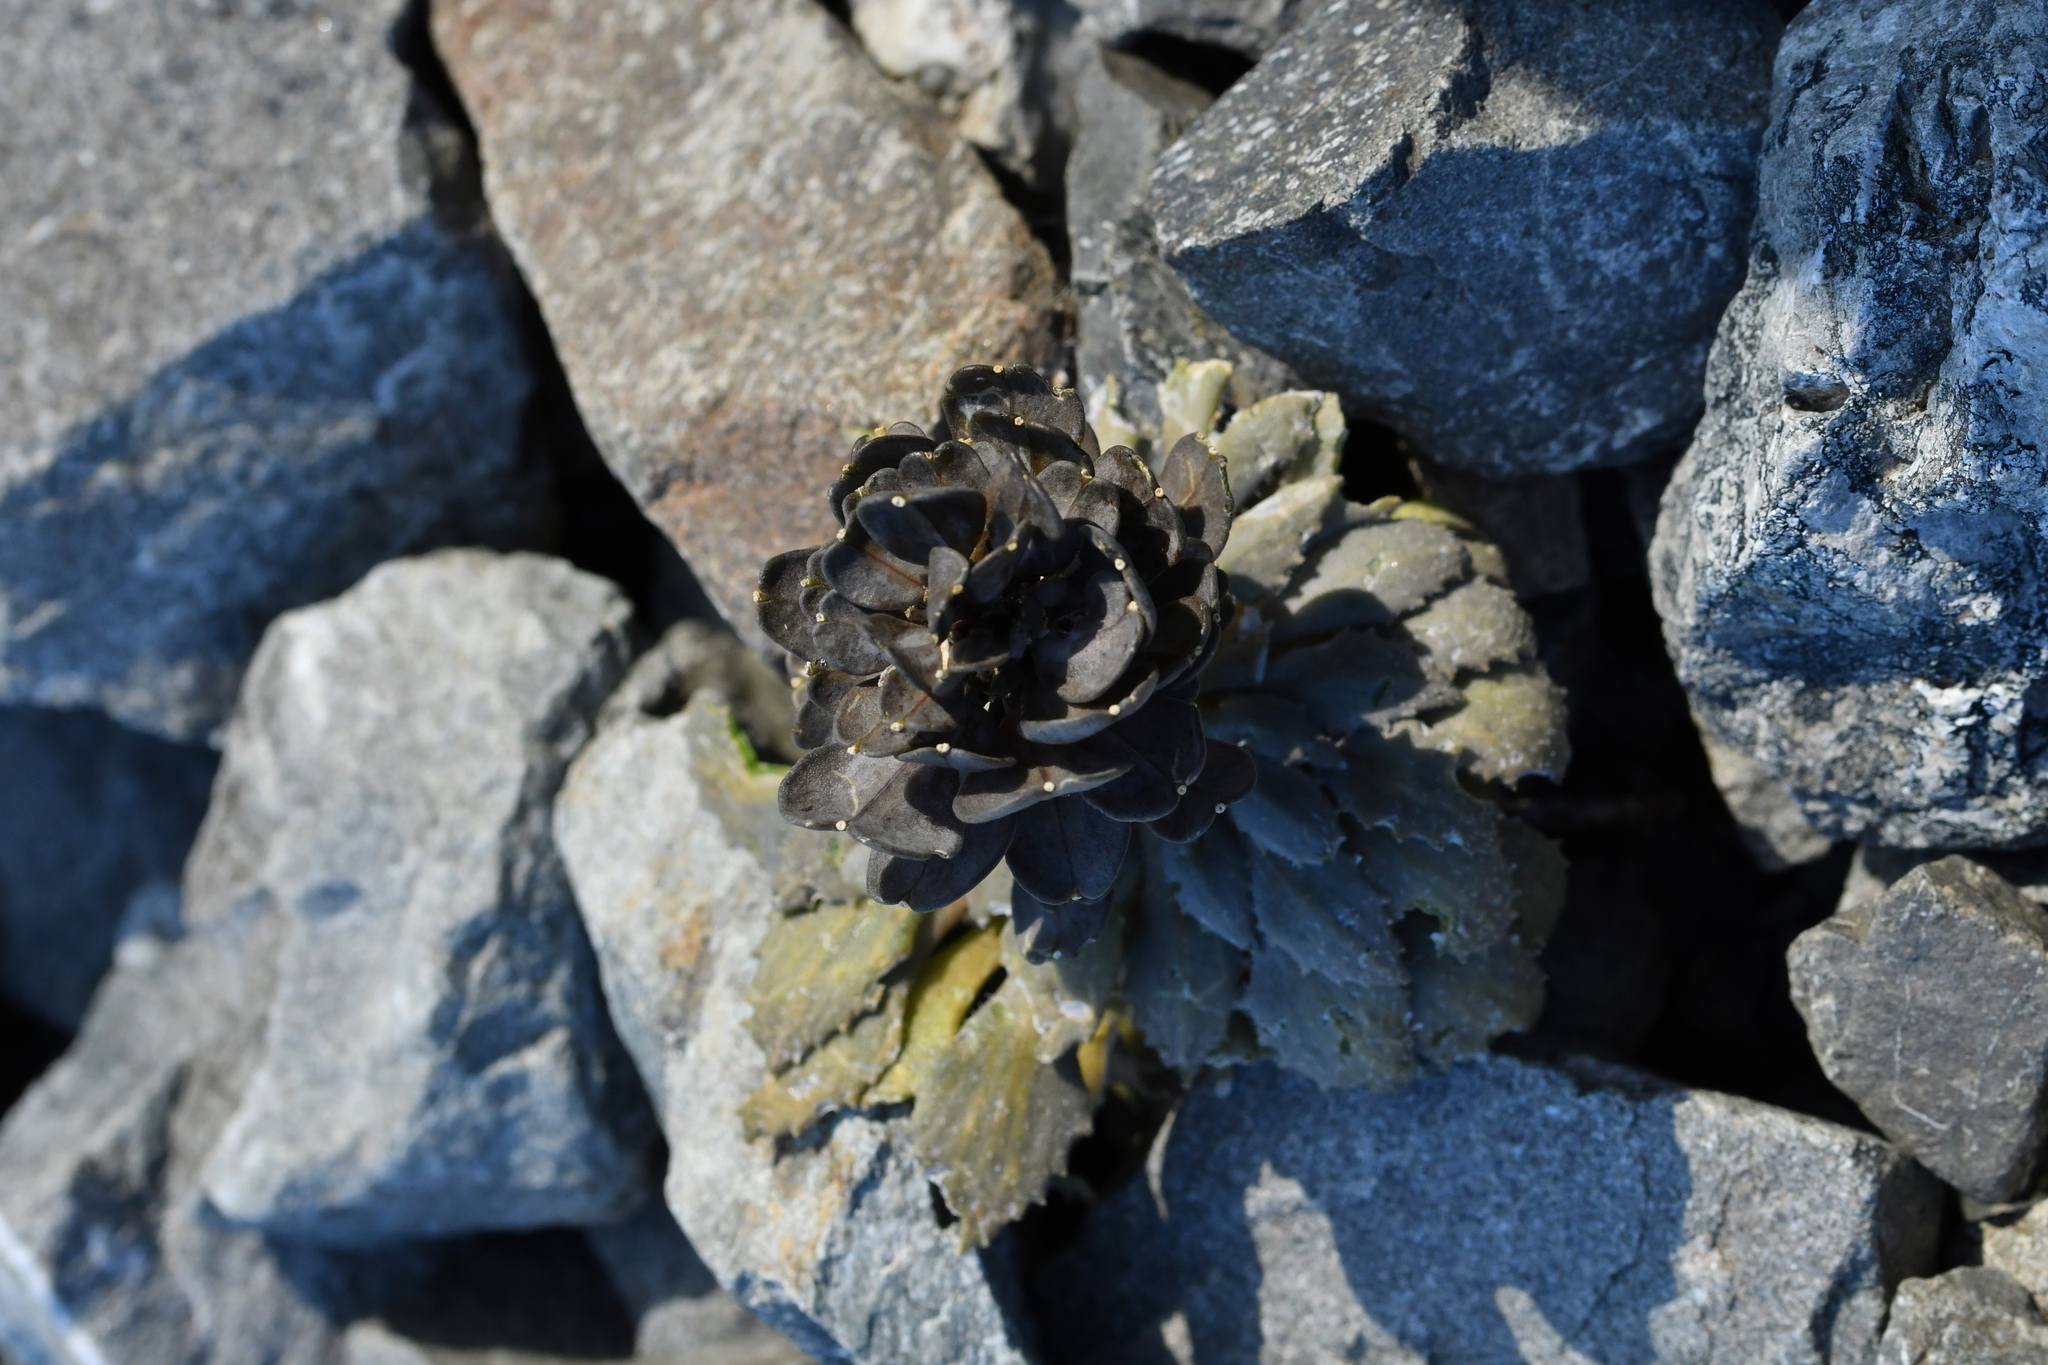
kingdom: Plantae
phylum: Tracheophyta
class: Magnoliopsida
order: Brassicales
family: Brassicaceae
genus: Notothlaspi
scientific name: Notothlaspi rosulatum
